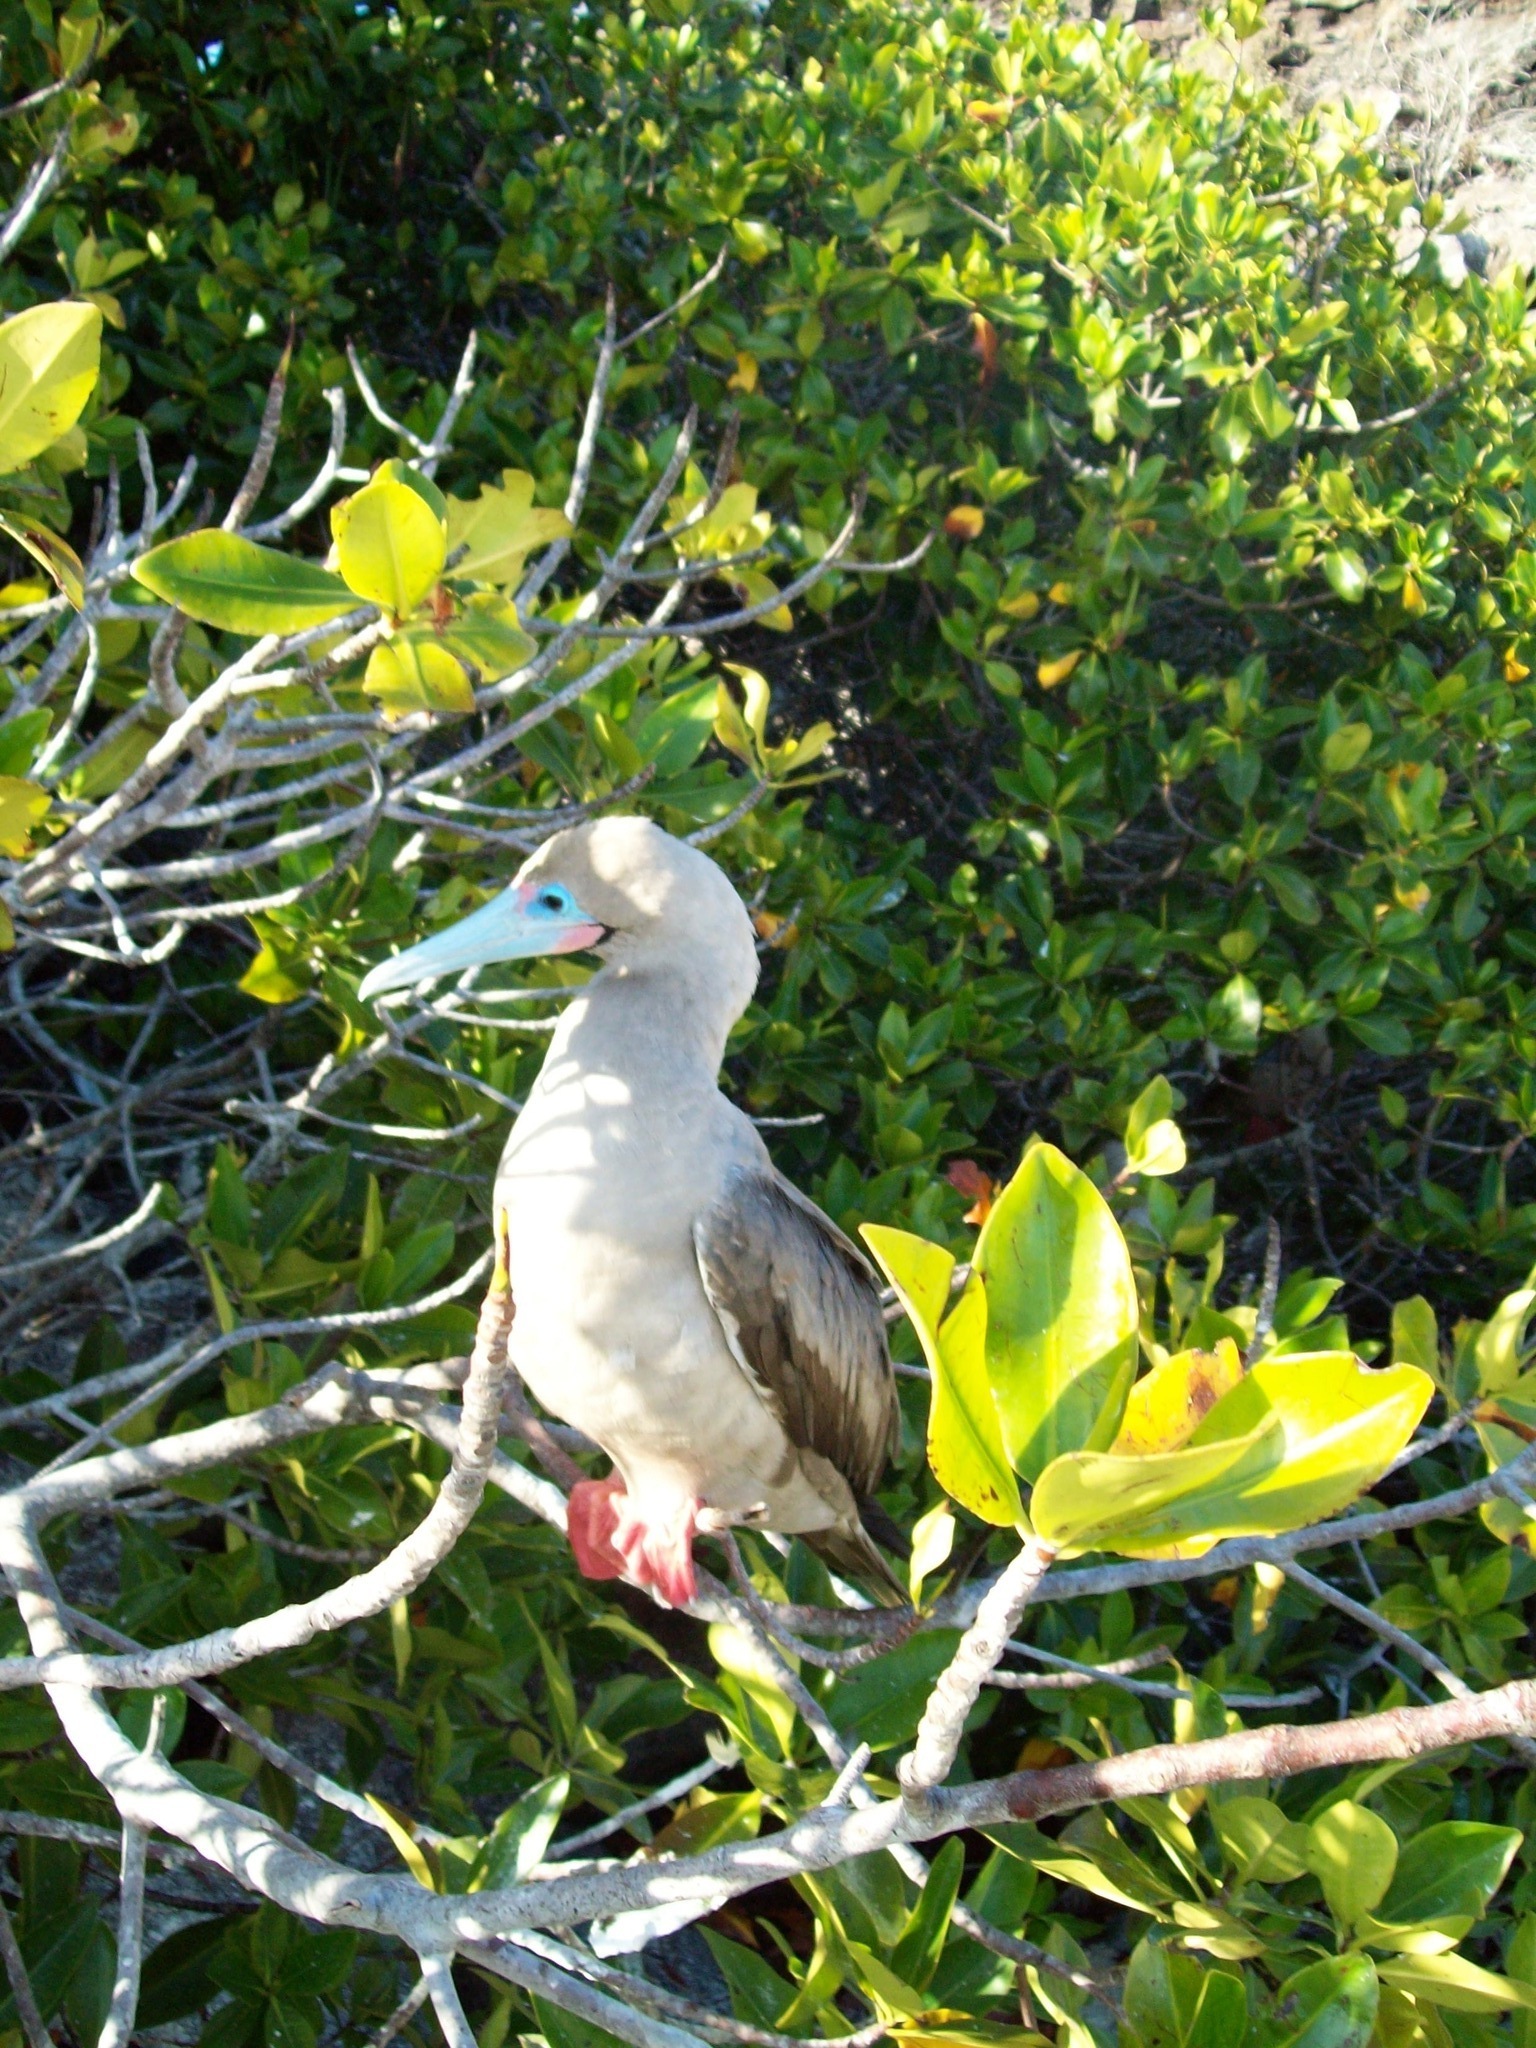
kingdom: Animalia
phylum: Chordata
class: Aves
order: Suliformes
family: Sulidae
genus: Sula
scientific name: Sula sula
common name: Red-footed booby
